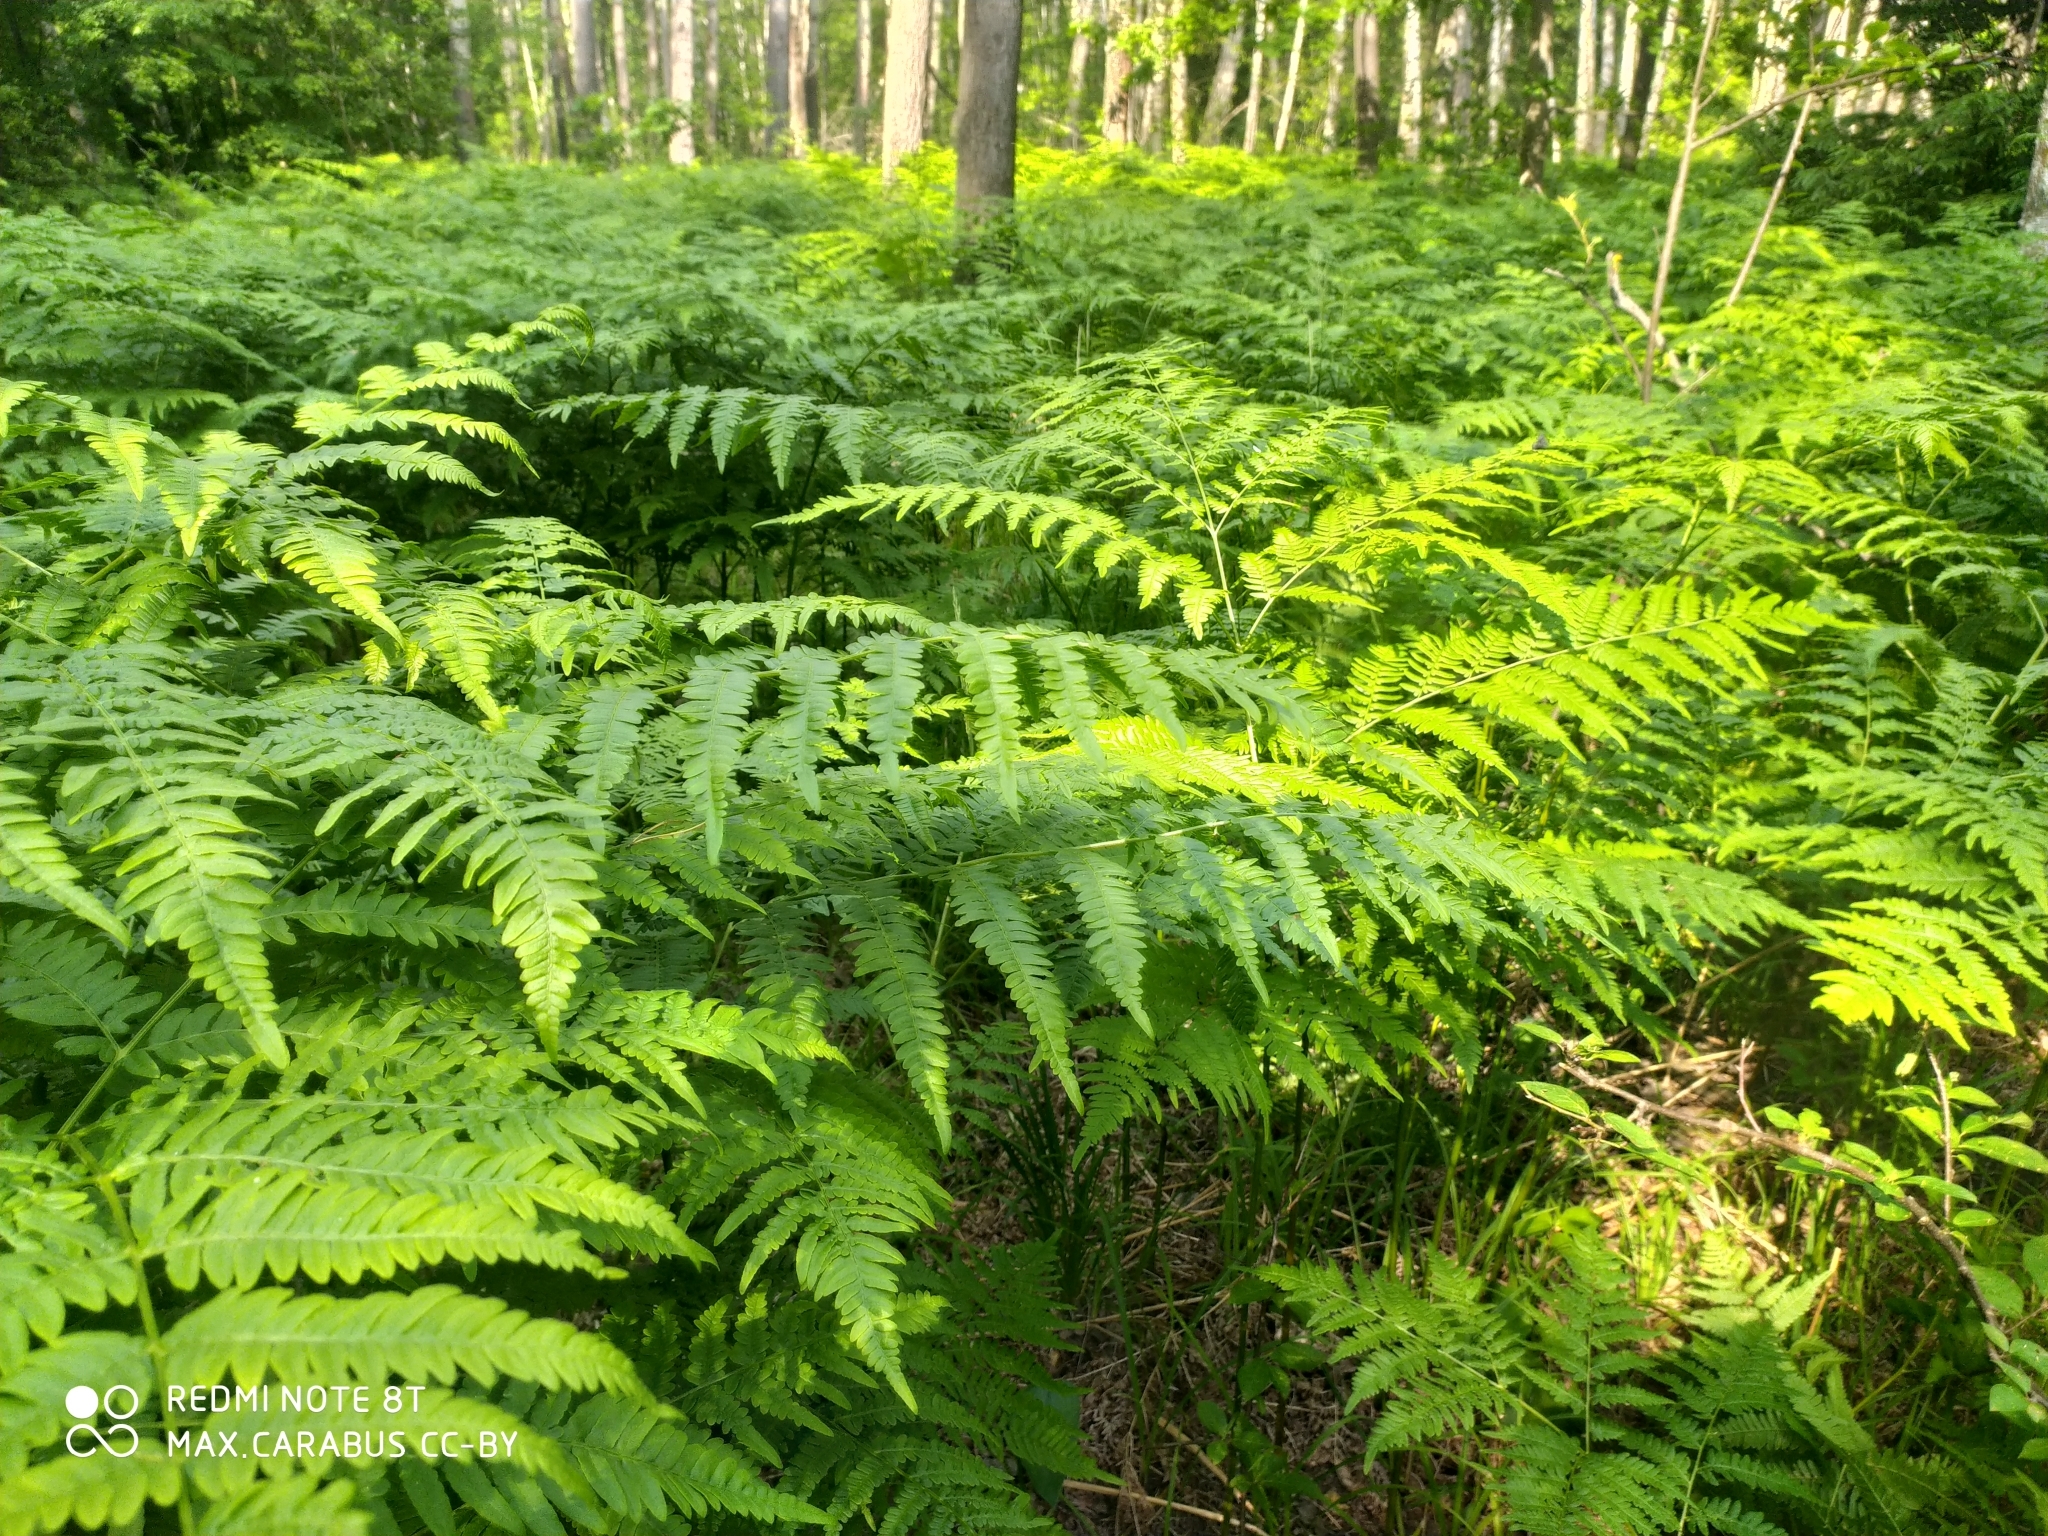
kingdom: Plantae
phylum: Tracheophyta
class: Polypodiopsida
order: Polypodiales
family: Dennstaedtiaceae
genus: Pteridium
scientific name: Pteridium aquilinum
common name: Bracken
